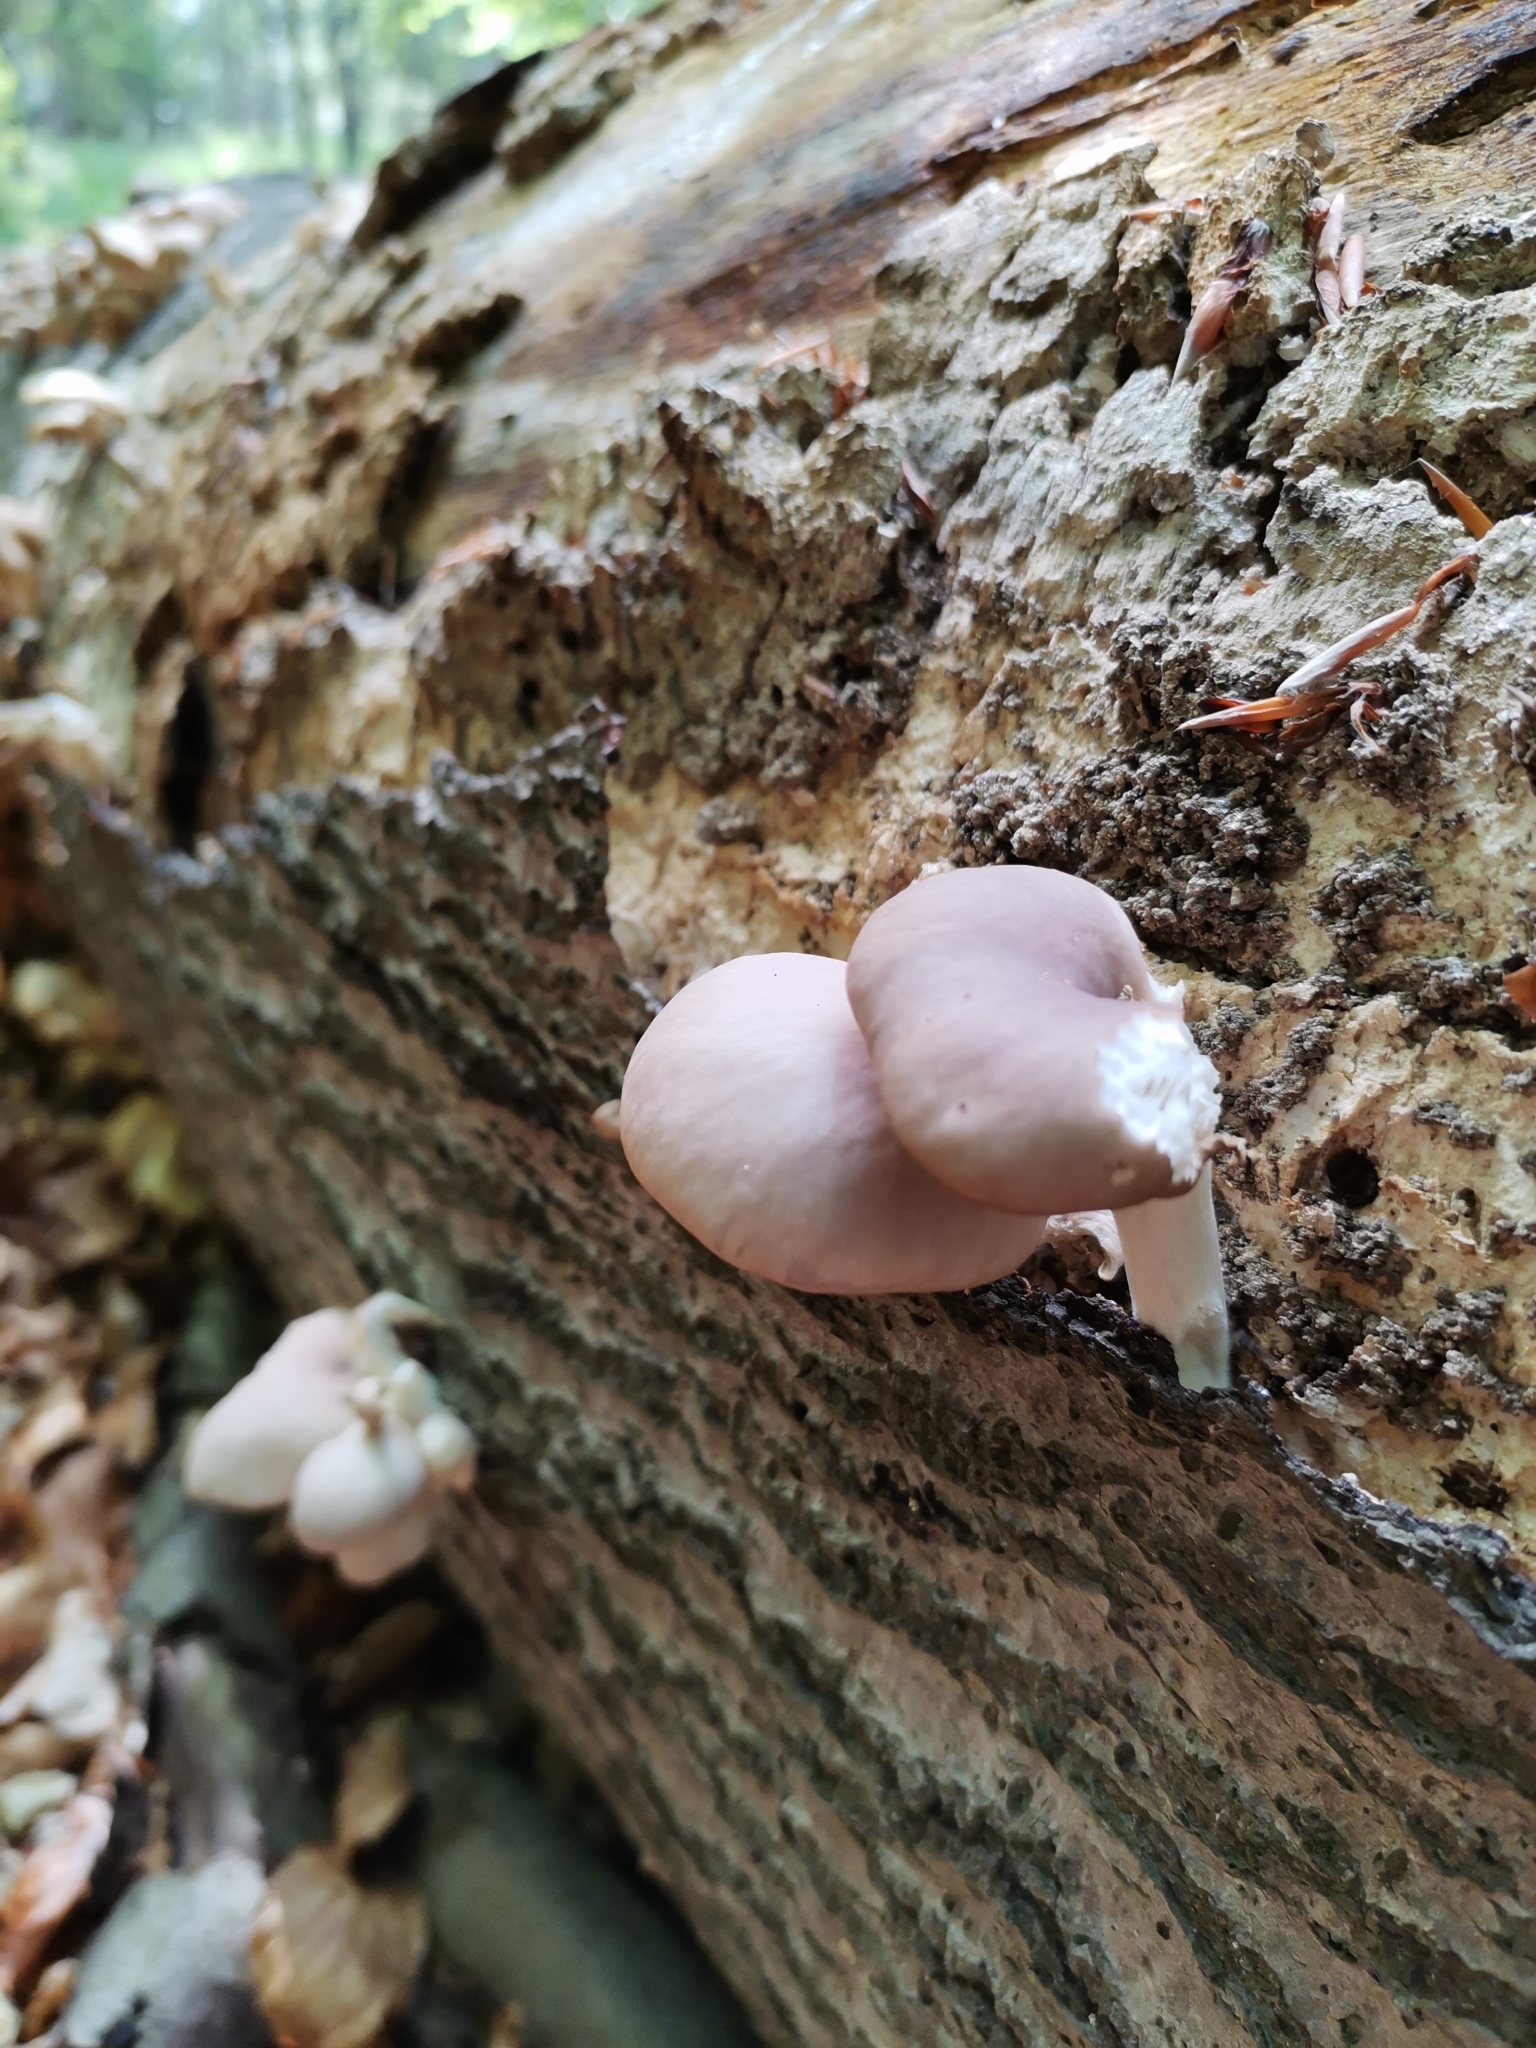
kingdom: Fungi
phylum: Basidiomycota
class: Agaricomycetes
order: Agaricales
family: Pleurotaceae
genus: Pleurotus
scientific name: Pleurotus pulmonarius
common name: Pale oyster
